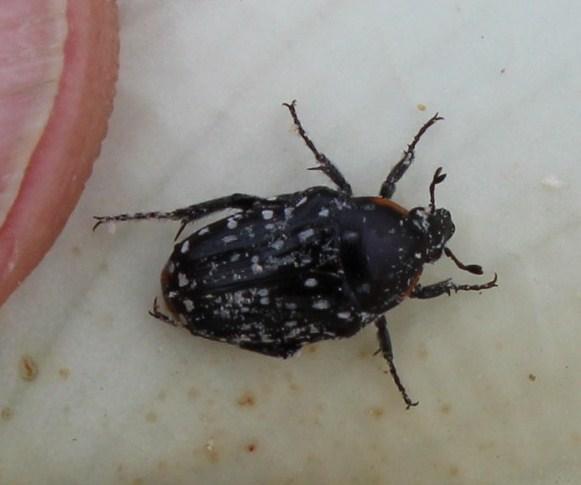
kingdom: Animalia
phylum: Arthropoda
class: Insecta
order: Coleoptera
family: Scarabaeidae
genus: Oxythyrea
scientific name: Oxythyrea
